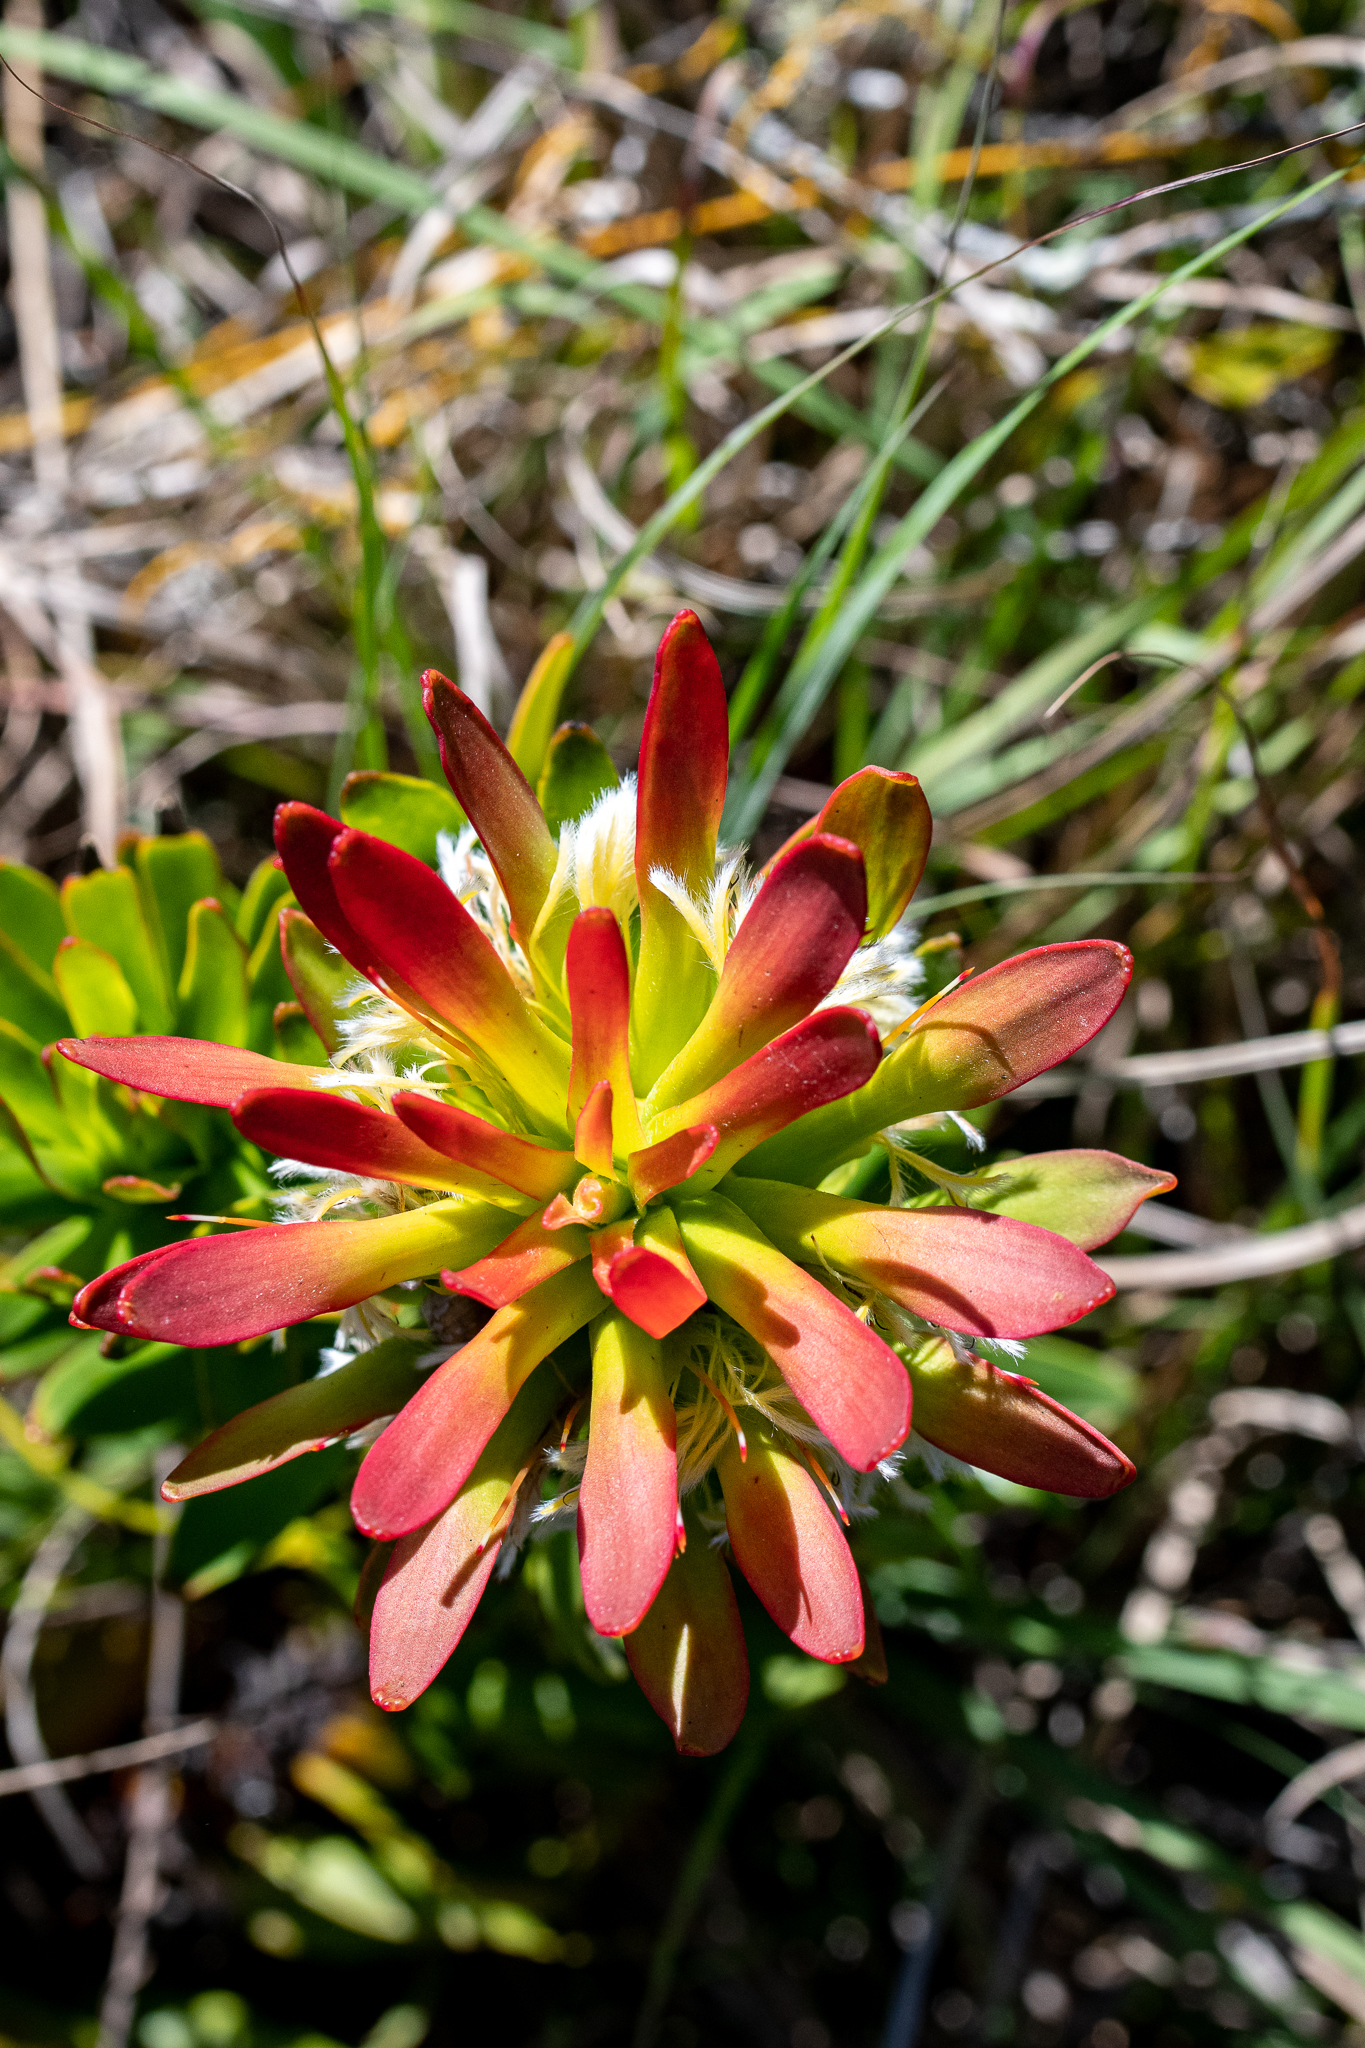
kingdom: Plantae
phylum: Tracheophyta
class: Magnoliopsida
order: Proteales
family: Proteaceae
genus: Mimetes
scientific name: Mimetes cucullatus
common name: Common pagoda
